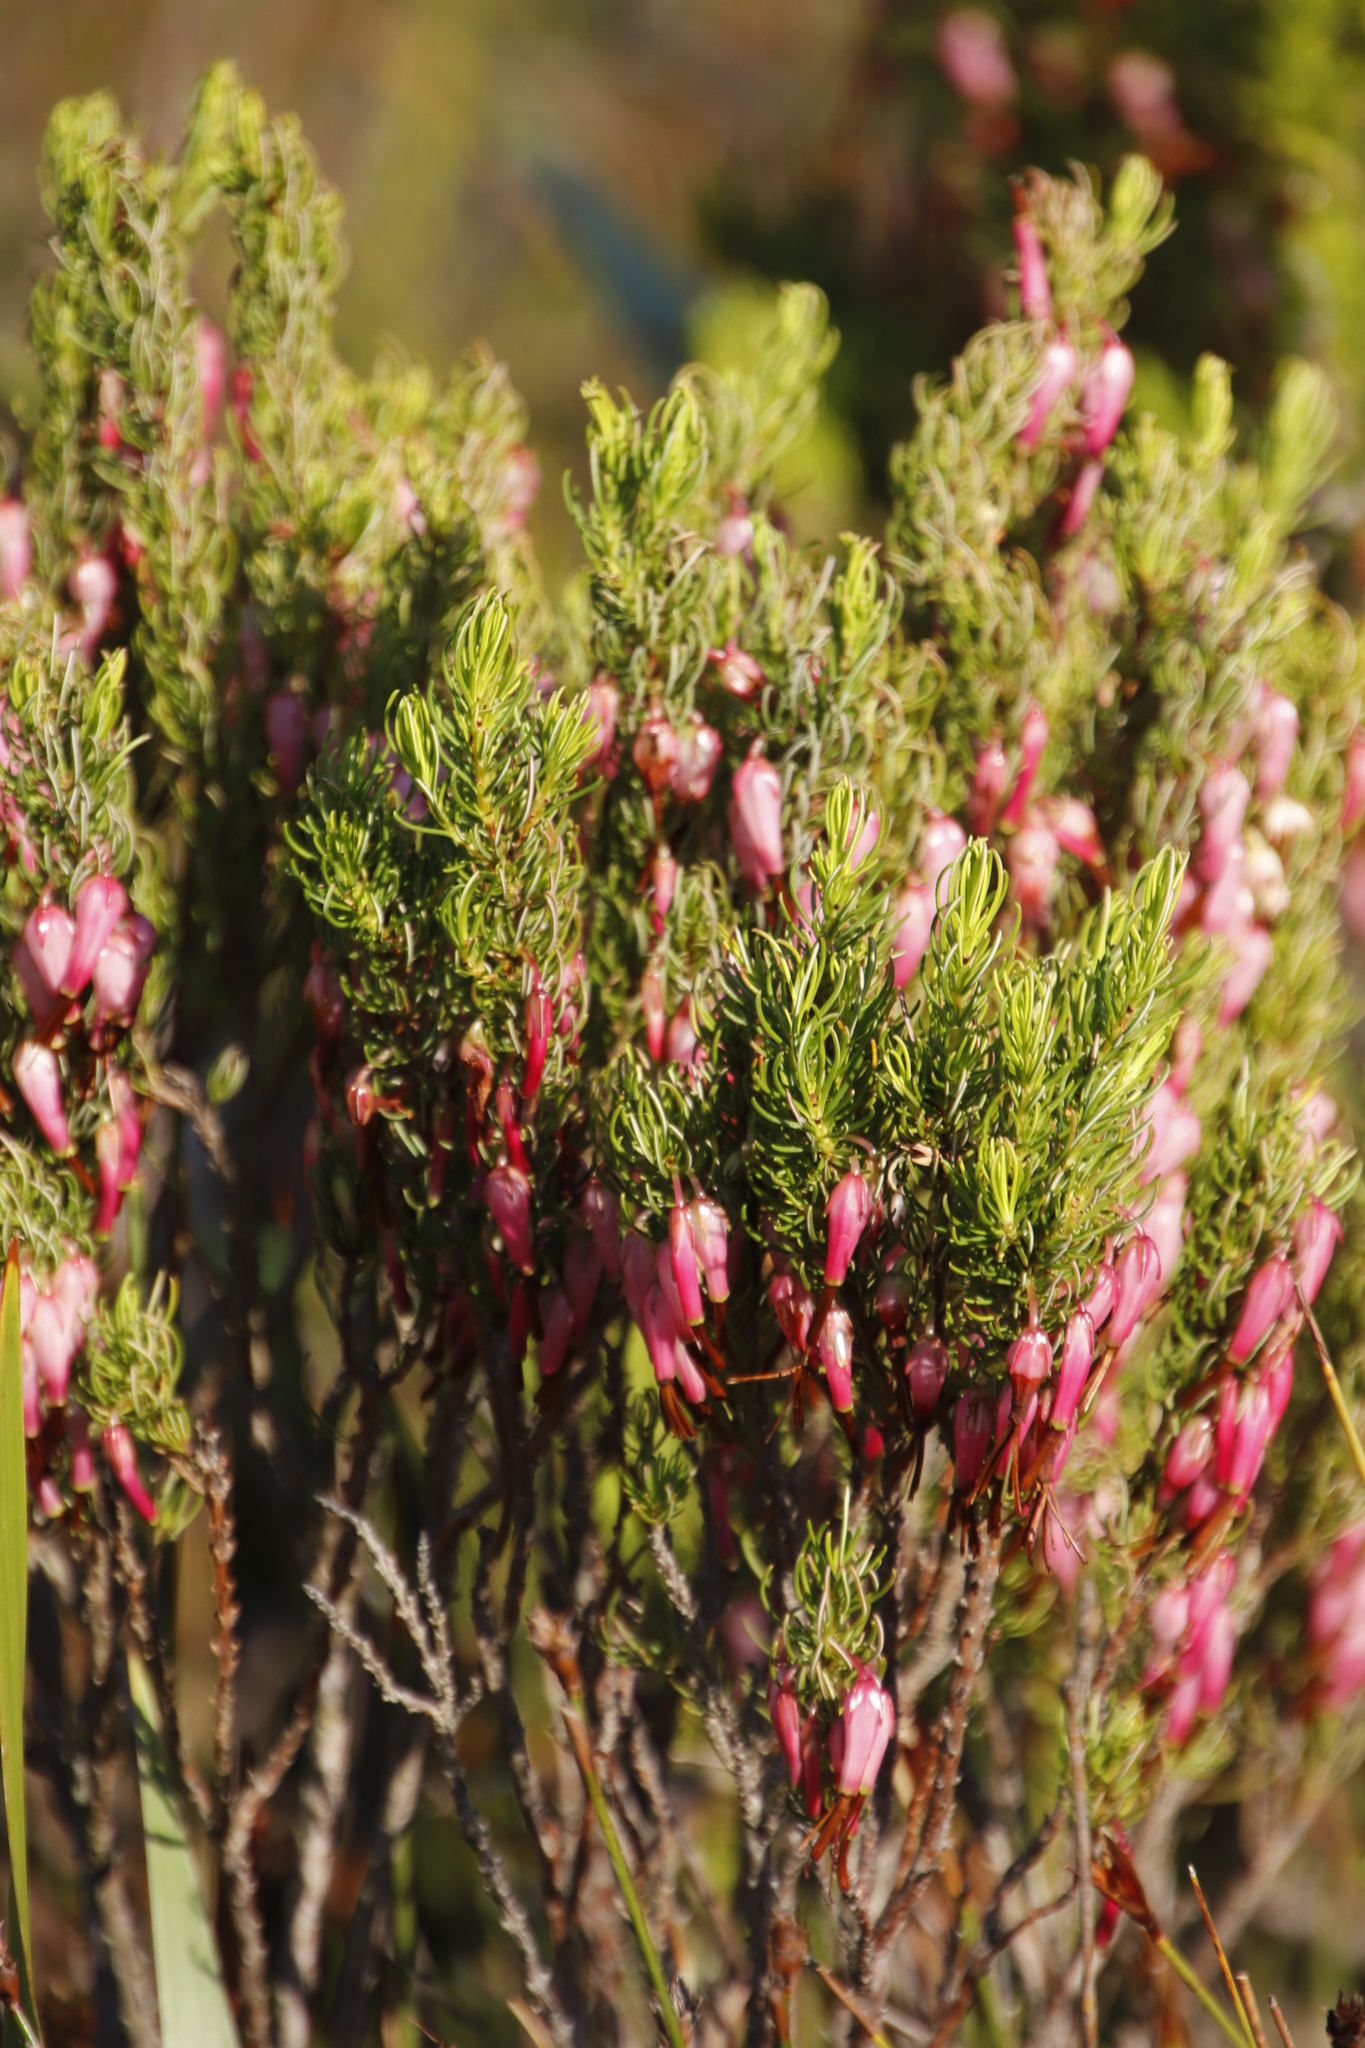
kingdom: Plantae
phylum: Tracheophyta
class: Magnoliopsida
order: Ericales
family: Ericaceae
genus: Erica
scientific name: Erica plukenetii
